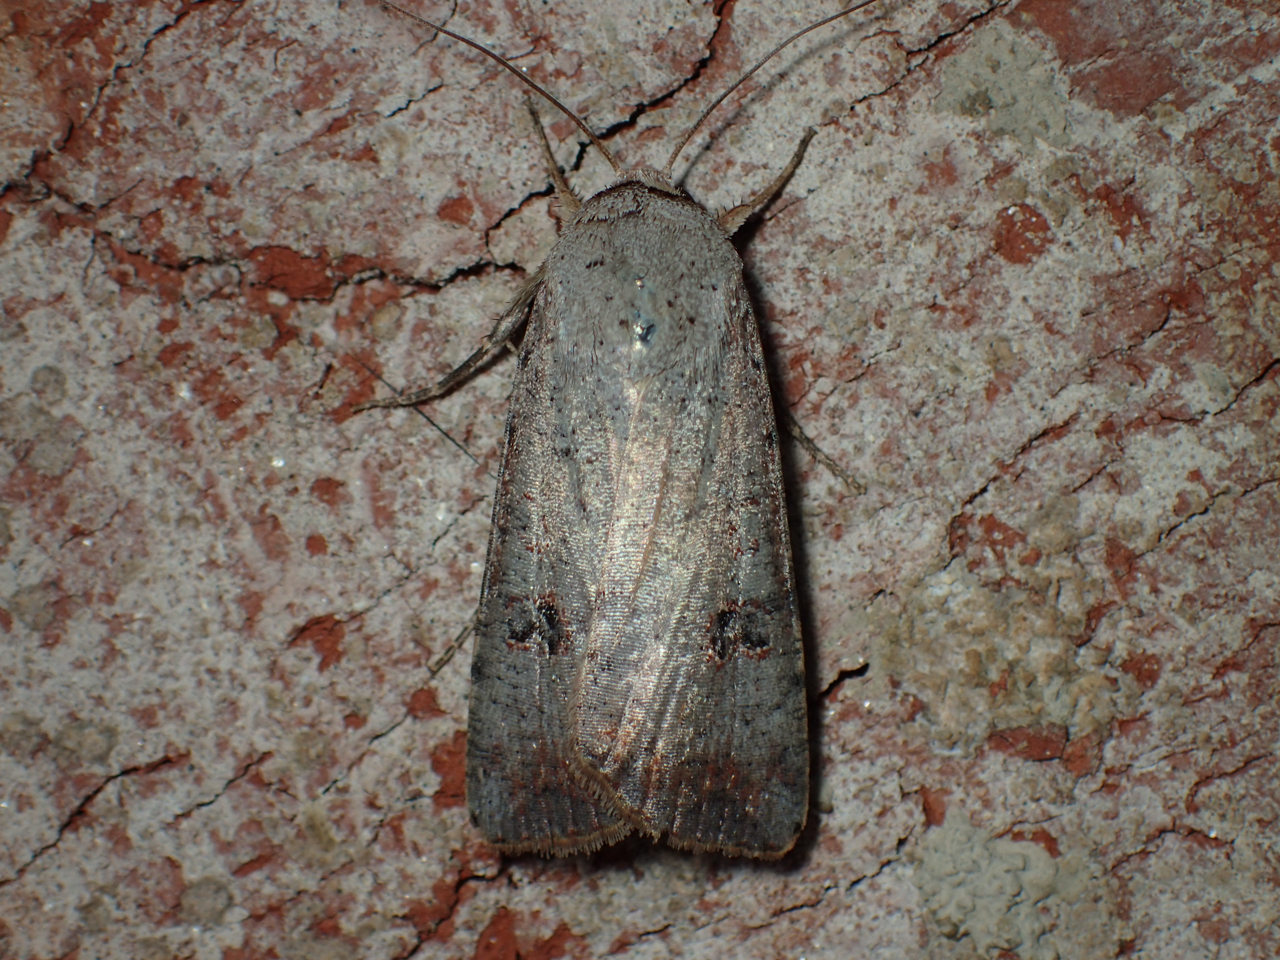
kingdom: Animalia
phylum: Arthropoda
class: Insecta
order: Lepidoptera
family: Noctuidae
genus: Anicla
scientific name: Anicla infecta
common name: Green cutworm
